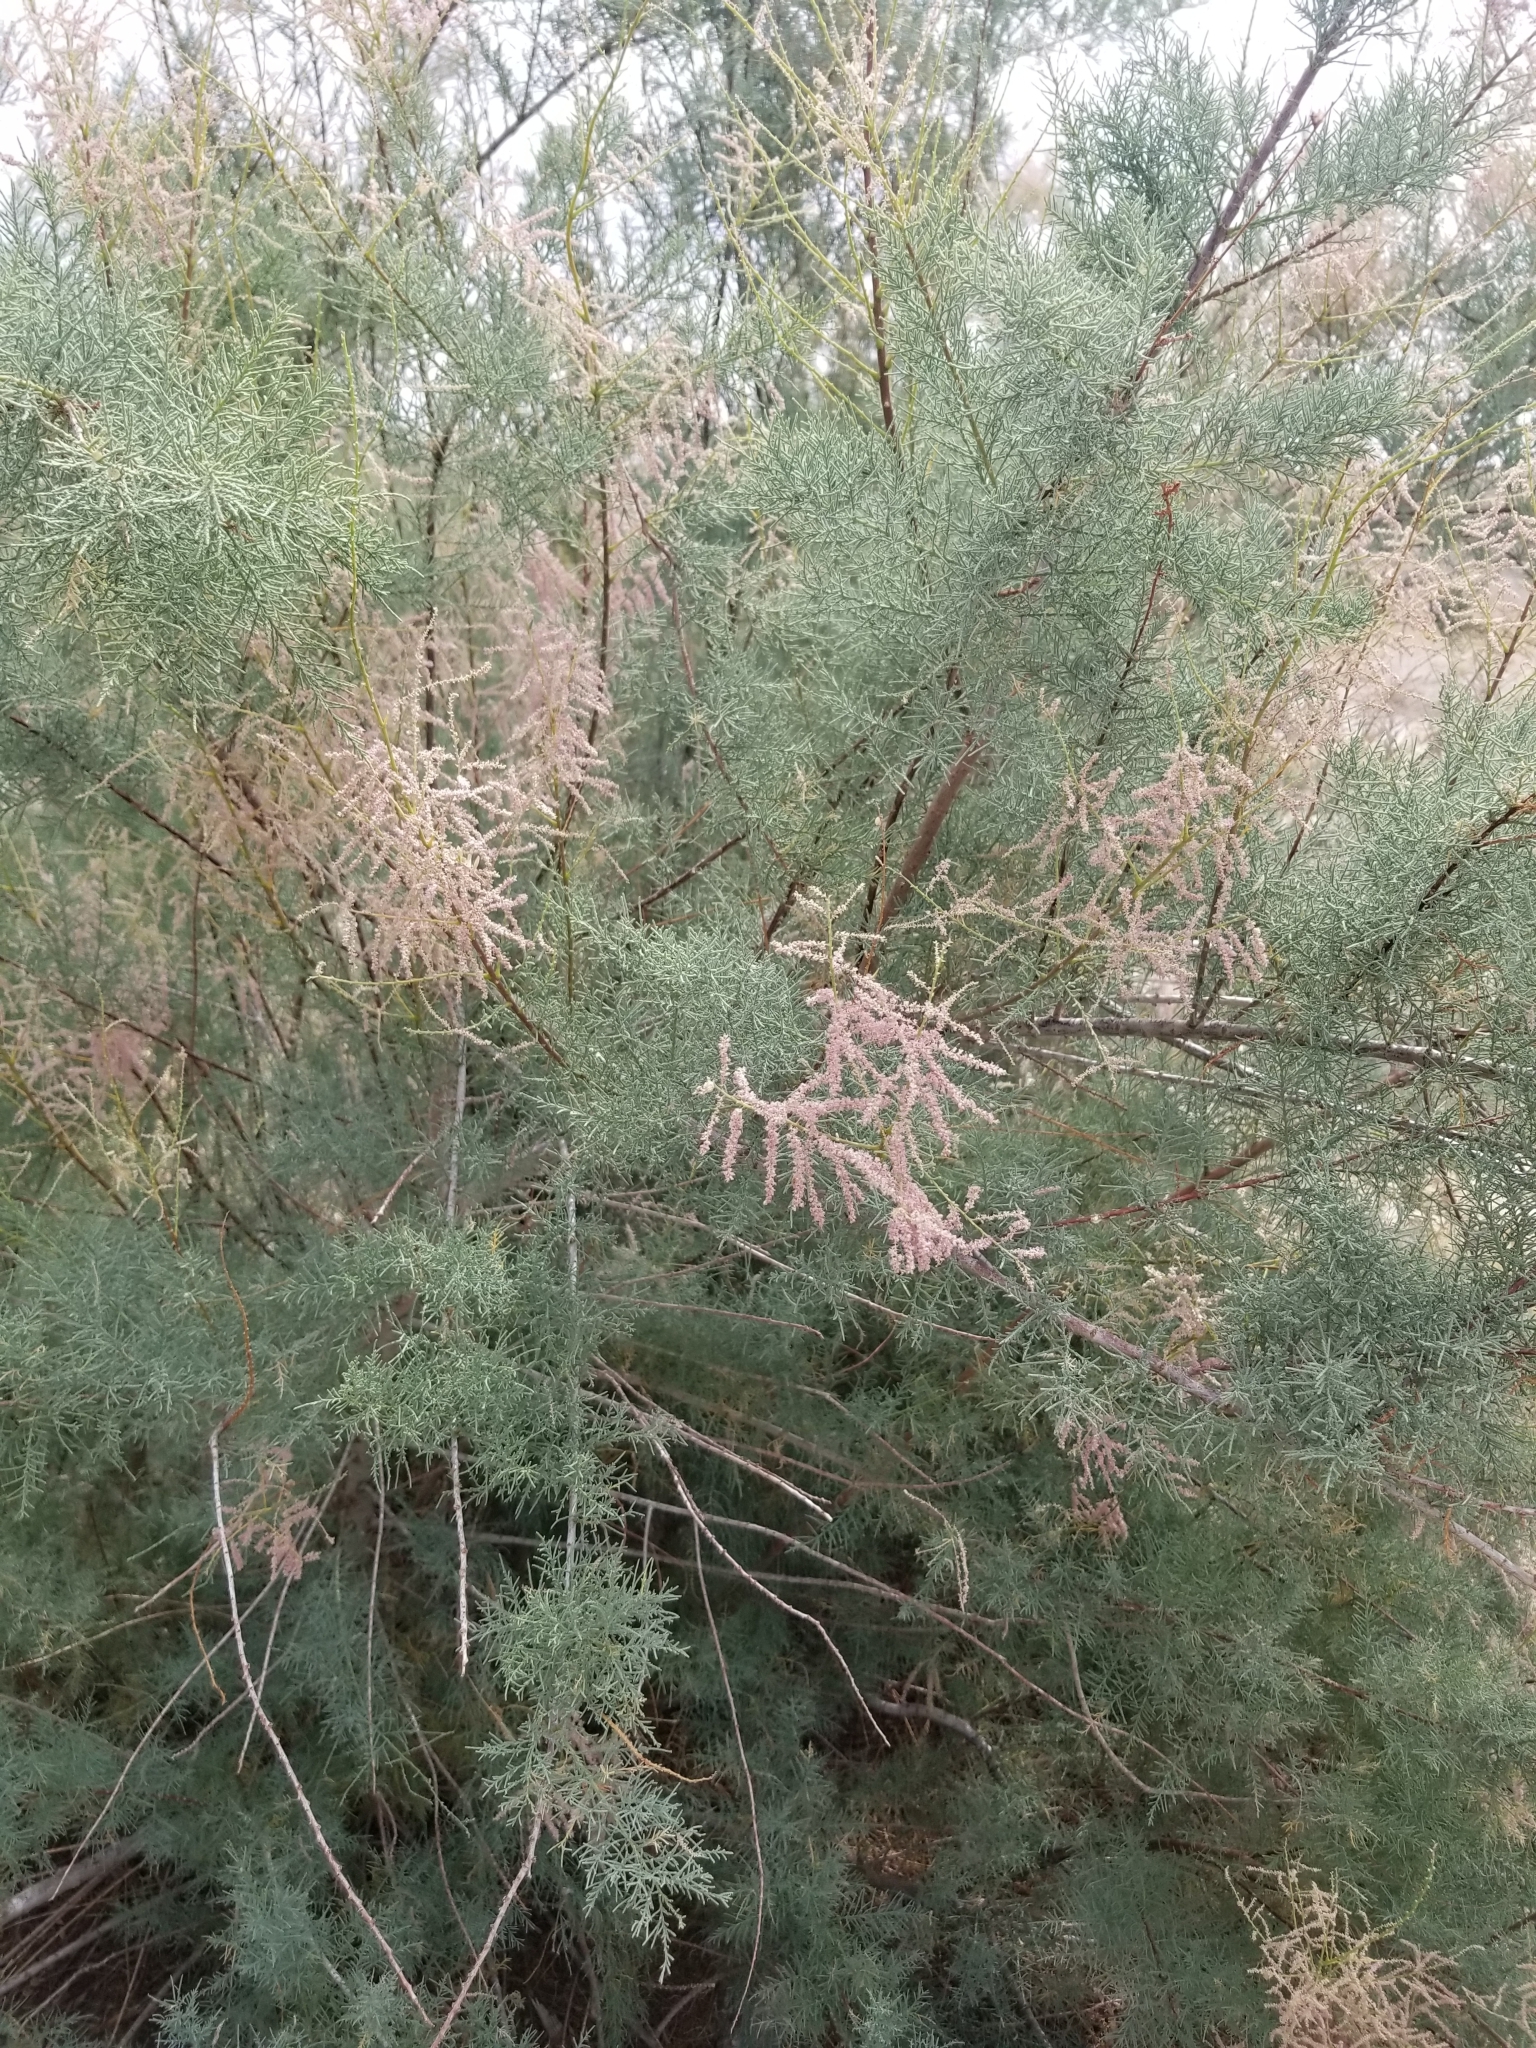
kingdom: Plantae
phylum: Tracheophyta
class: Magnoliopsida
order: Caryophyllales
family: Tamaricaceae
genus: Tamarix
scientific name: Tamarix ramosissima
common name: Pink tamarisk
